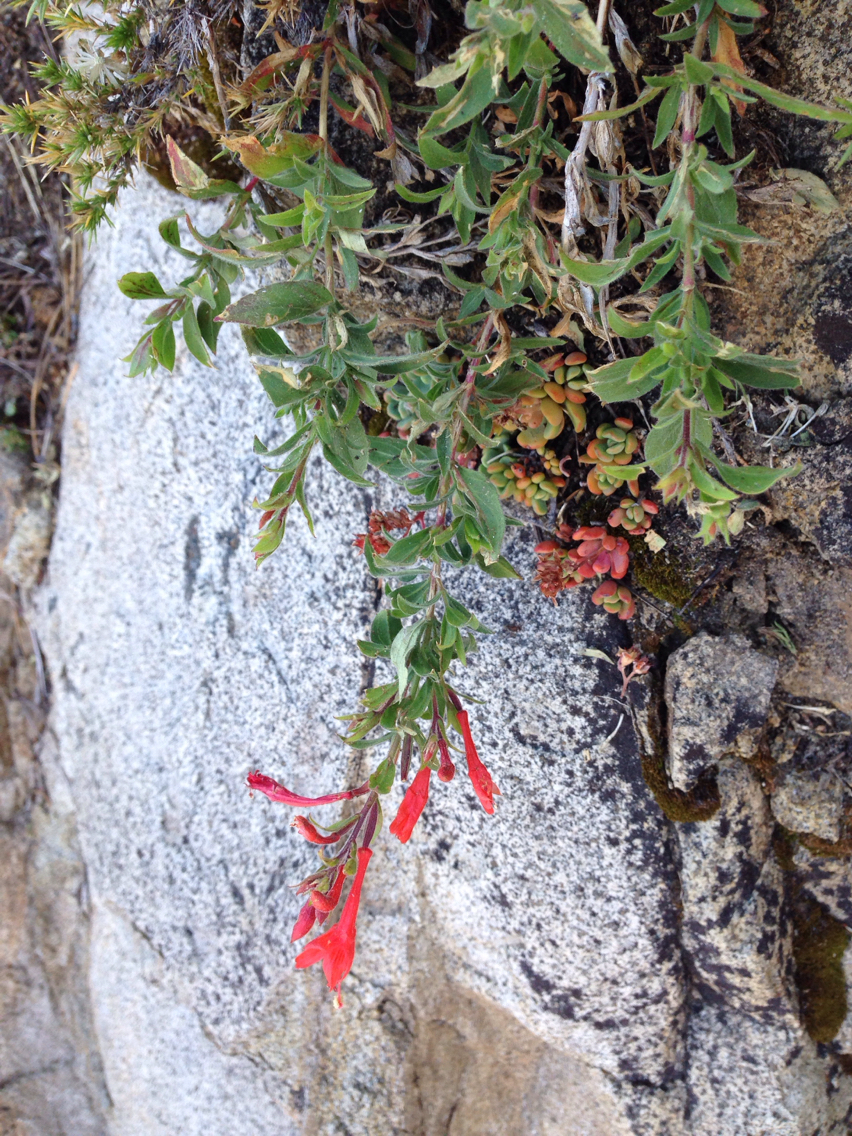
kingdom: Plantae
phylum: Tracheophyta
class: Magnoliopsida
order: Myrtales
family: Onagraceae
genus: Epilobium
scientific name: Epilobium canum
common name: California-fuchsia
